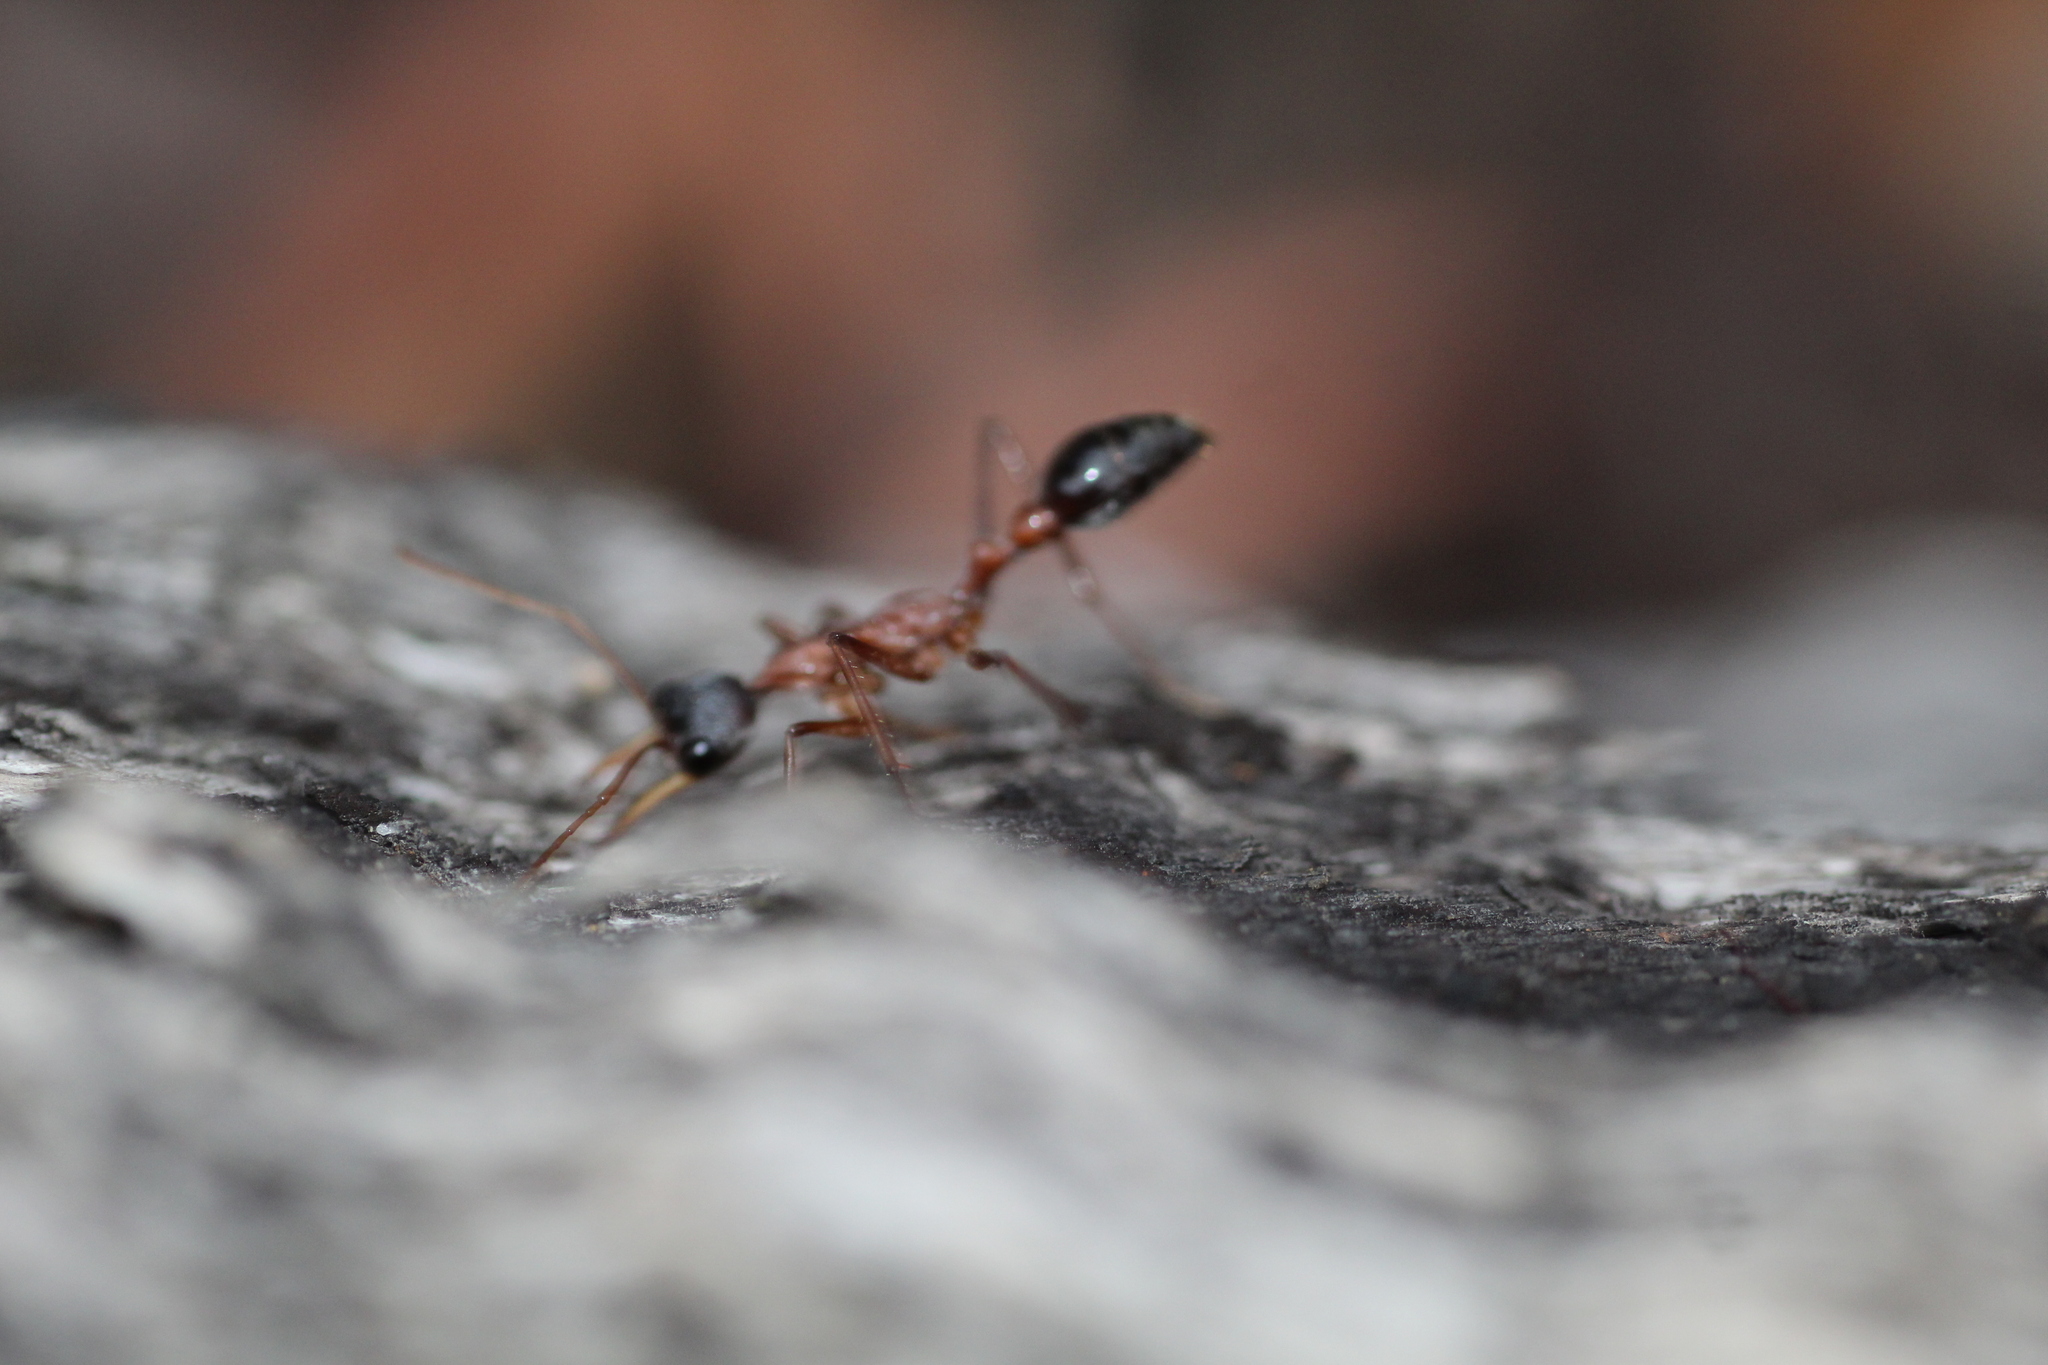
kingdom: Animalia
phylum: Arthropoda
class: Insecta
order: Hymenoptera
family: Formicidae
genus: Myrmecia
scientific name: Myrmecia nigriceps
